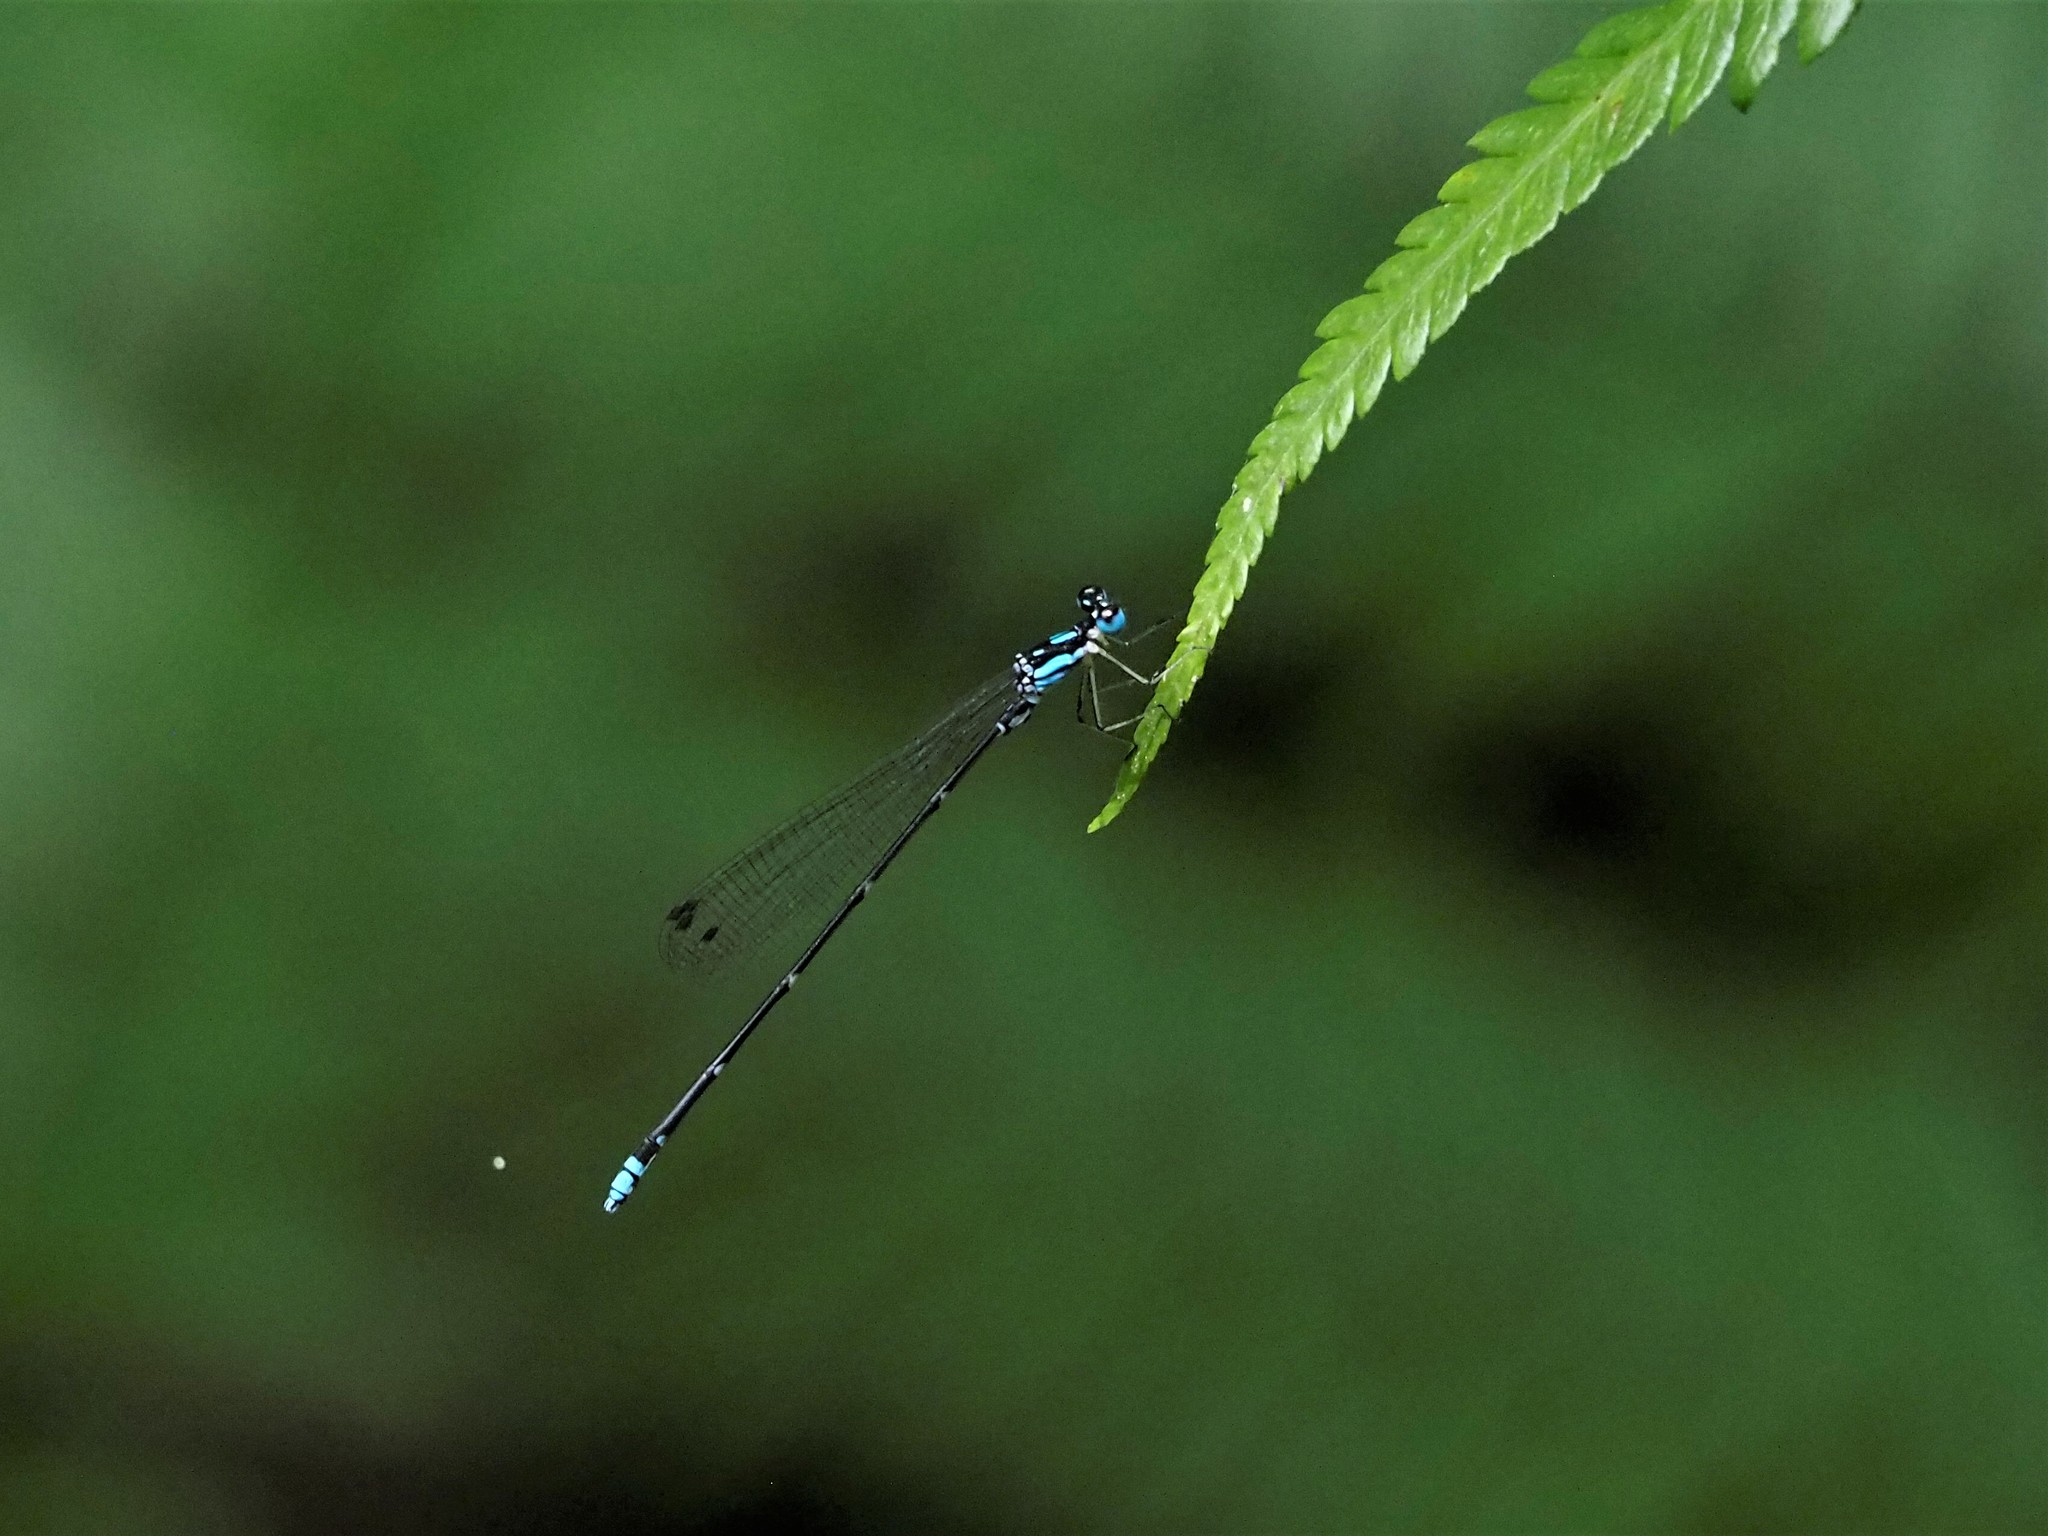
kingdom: Animalia
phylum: Arthropoda
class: Insecta
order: Odonata
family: Platycnemididae
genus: Coeliccia
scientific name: Coeliccia cyanomelas
